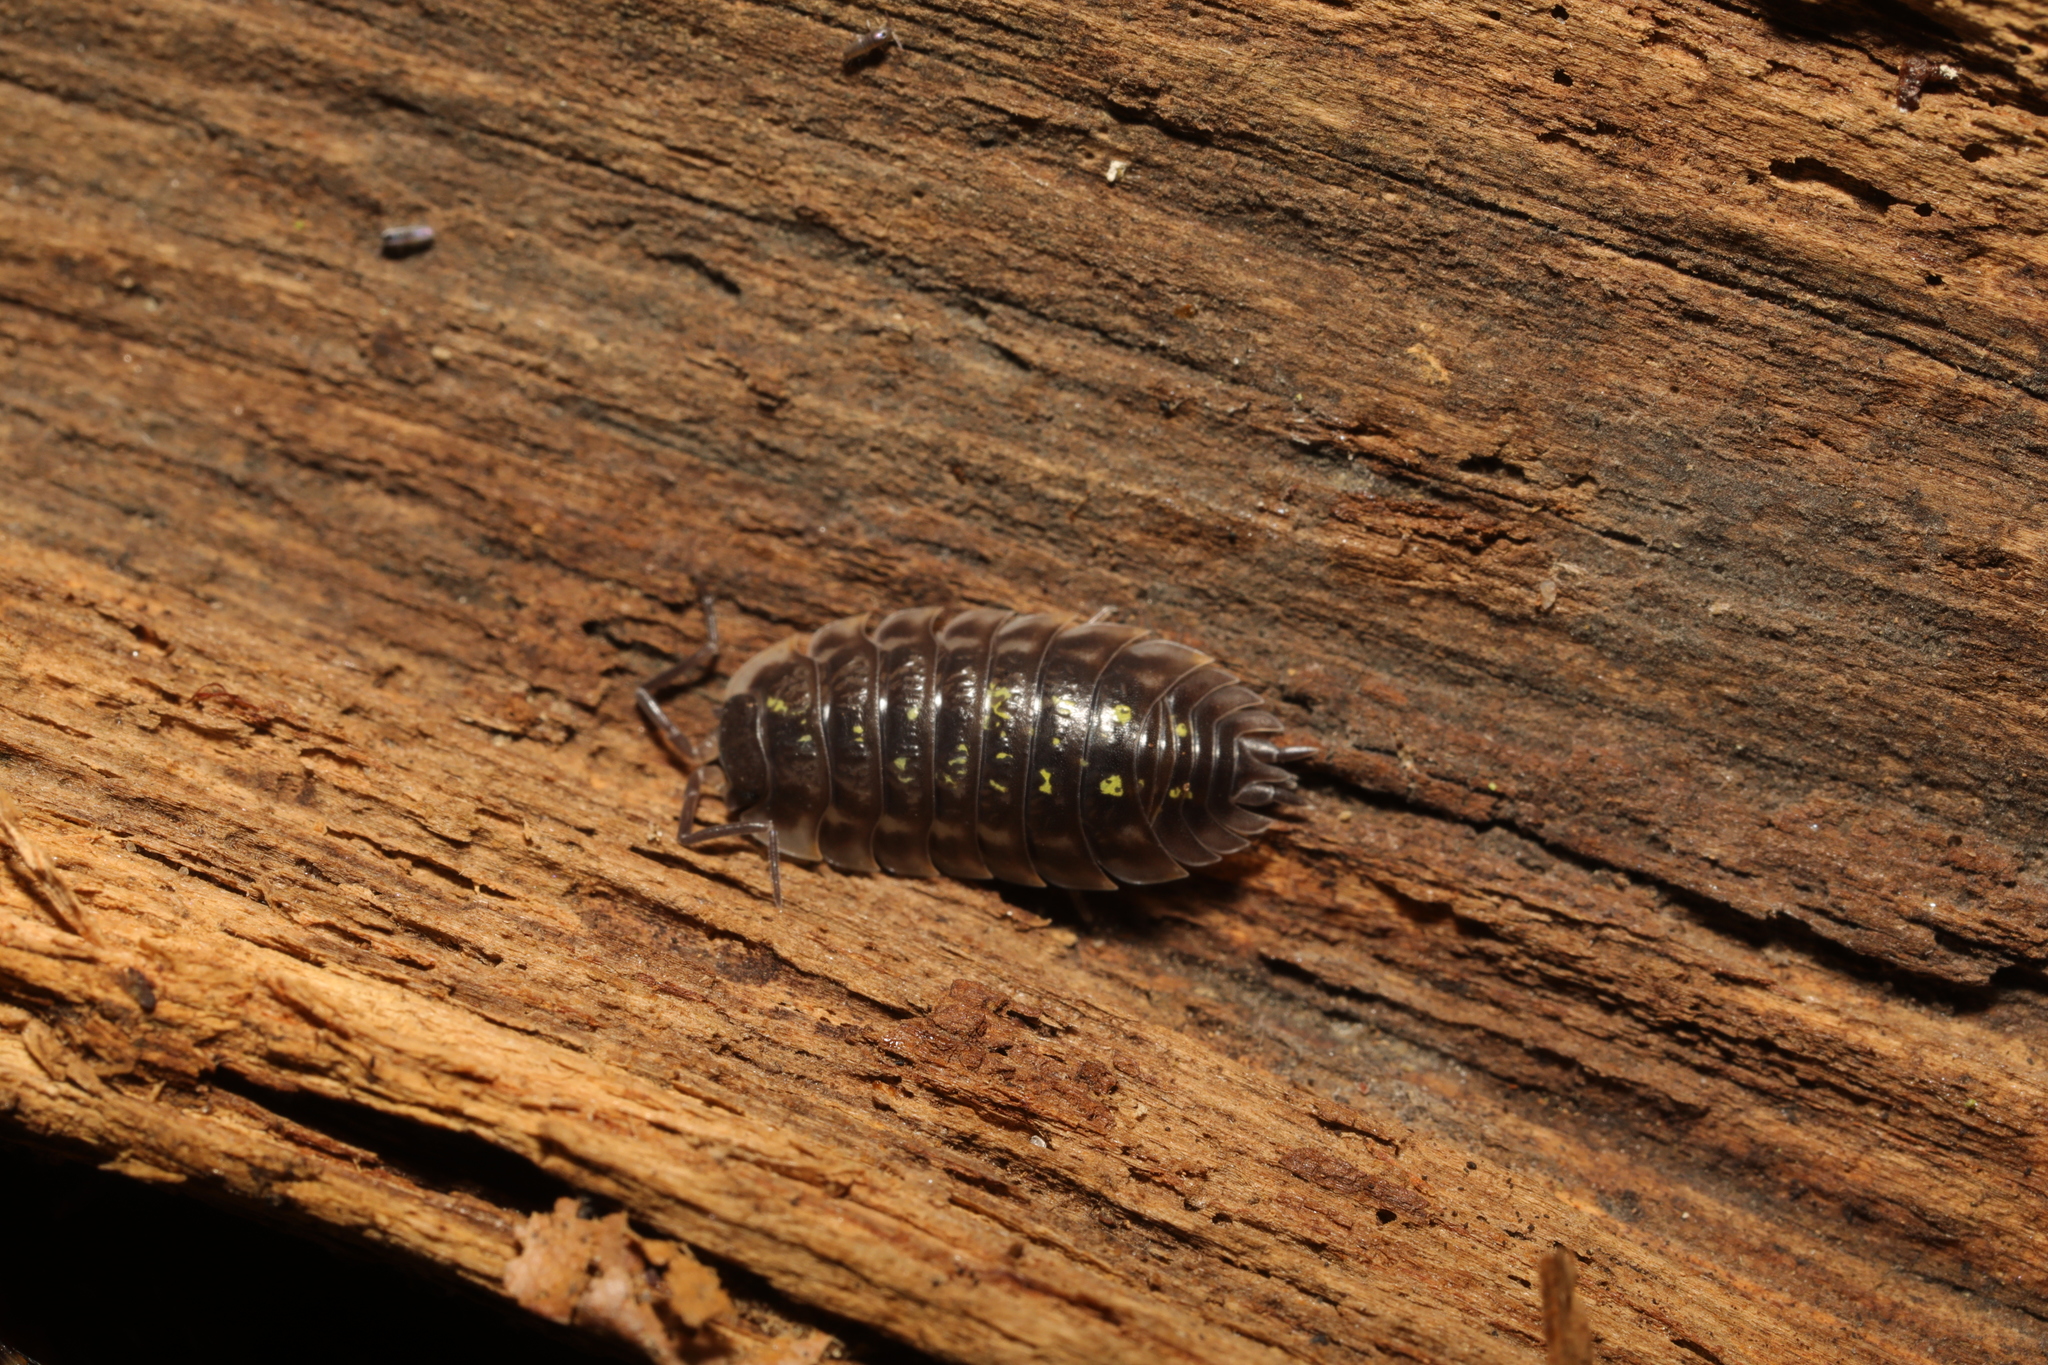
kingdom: Animalia
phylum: Arthropoda
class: Malacostraca
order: Isopoda
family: Oniscidae
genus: Oniscus
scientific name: Oniscus asellus
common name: Common shiny woodlouse
